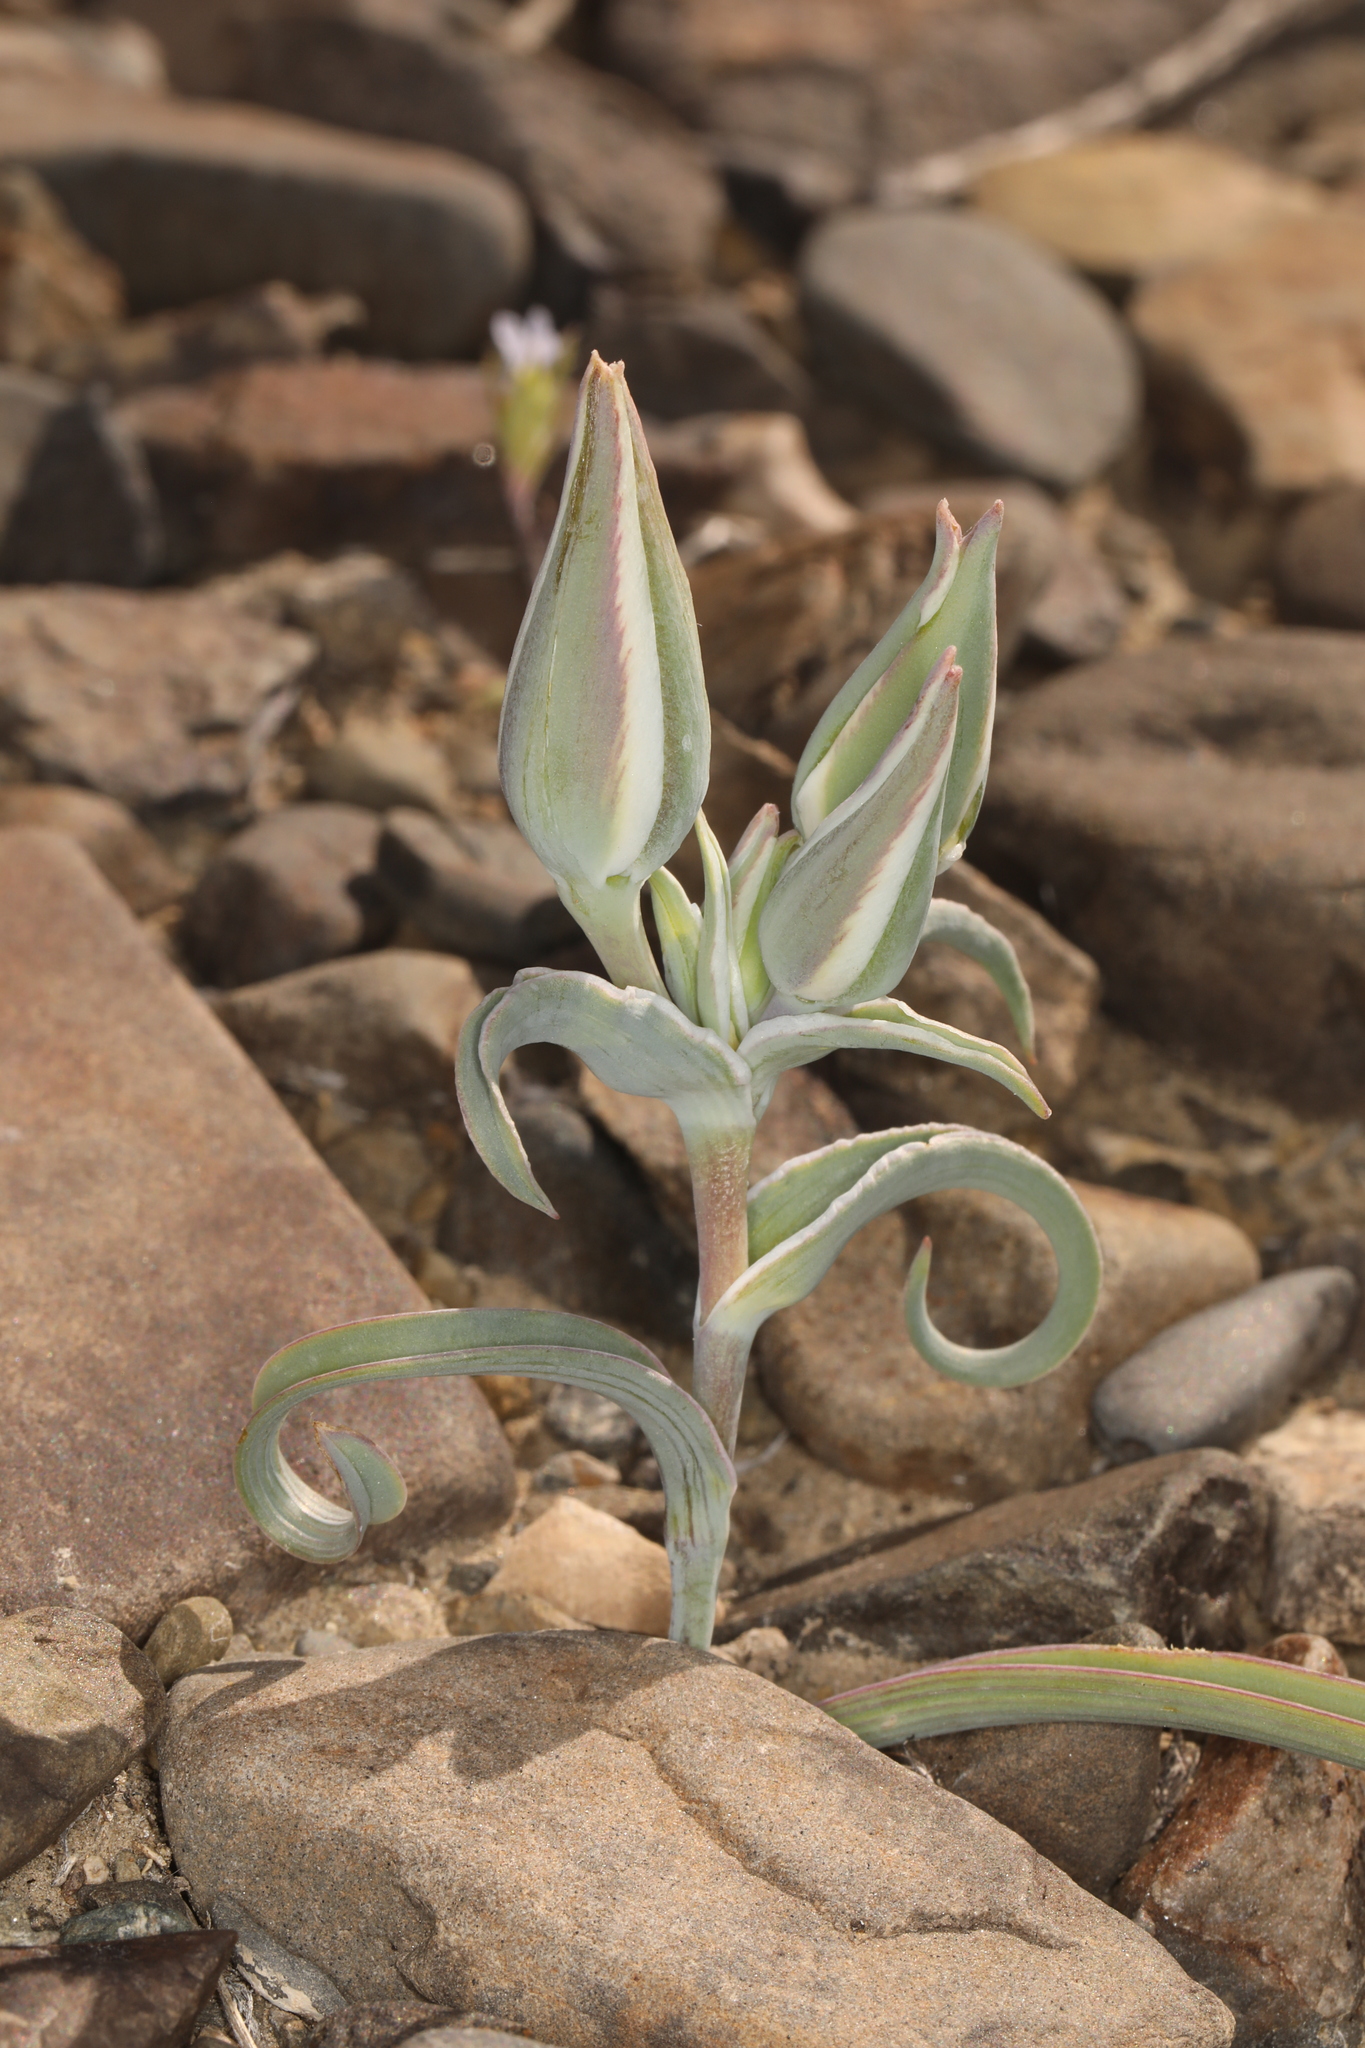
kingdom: Plantae
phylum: Tracheophyta
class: Liliopsida
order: Liliales
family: Liliaceae
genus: Calochortus
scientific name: Calochortus kennedyi
